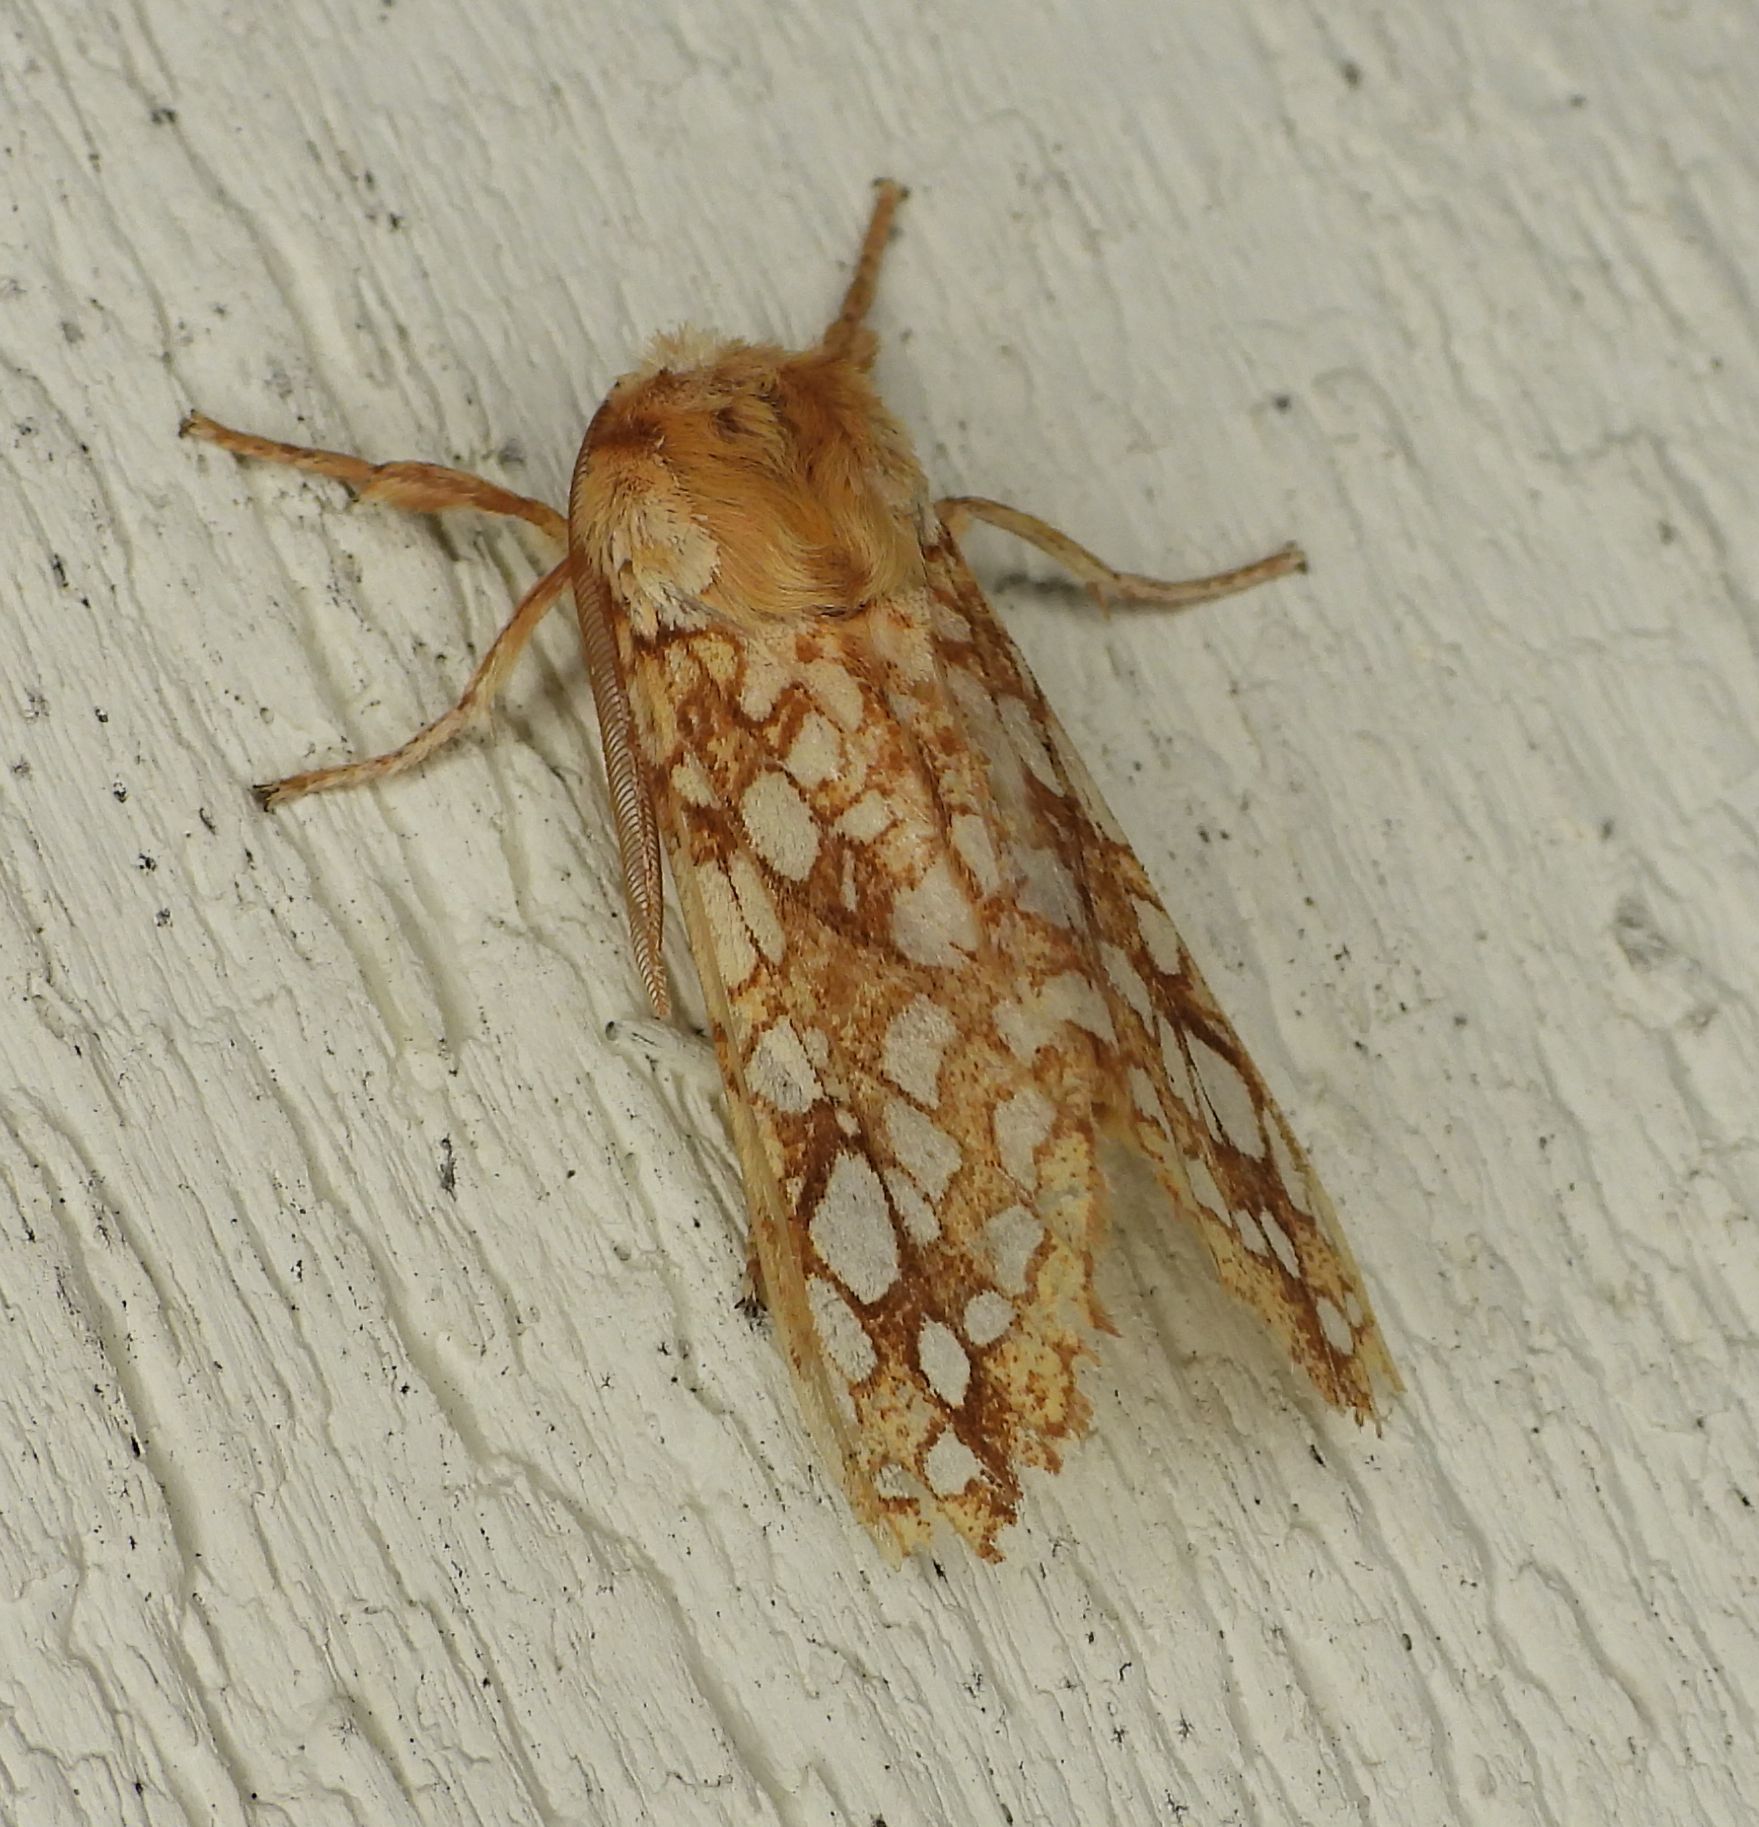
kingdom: Animalia
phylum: Arthropoda
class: Insecta
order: Lepidoptera
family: Erebidae
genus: Lophocampa
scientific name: Lophocampa caryae
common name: Hickory tussock moth
